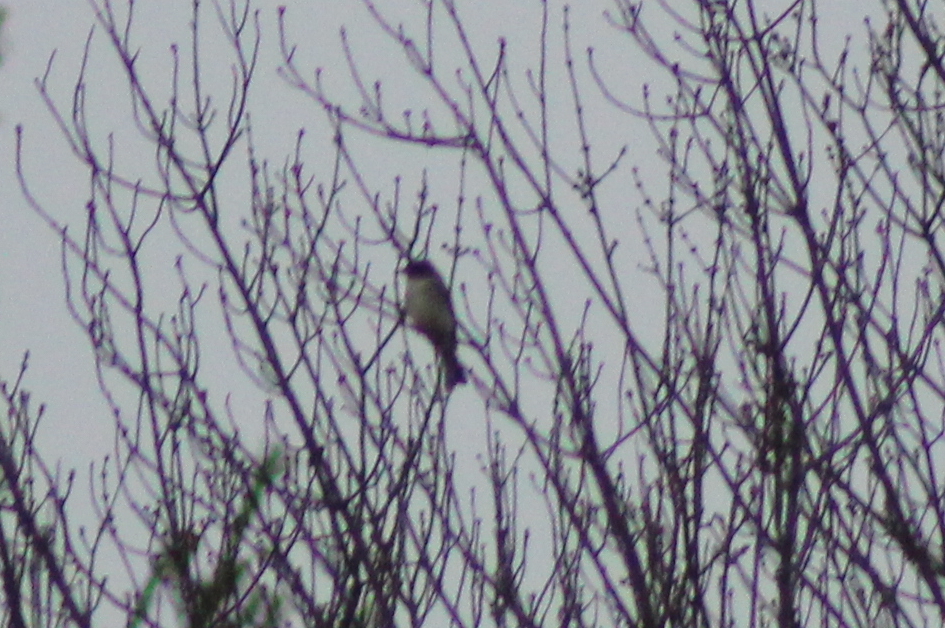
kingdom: Animalia
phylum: Chordata
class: Aves
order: Passeriformes
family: Tyrannidae
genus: Sayornis
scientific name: Sayornis phoebe
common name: Eastern phoebe
